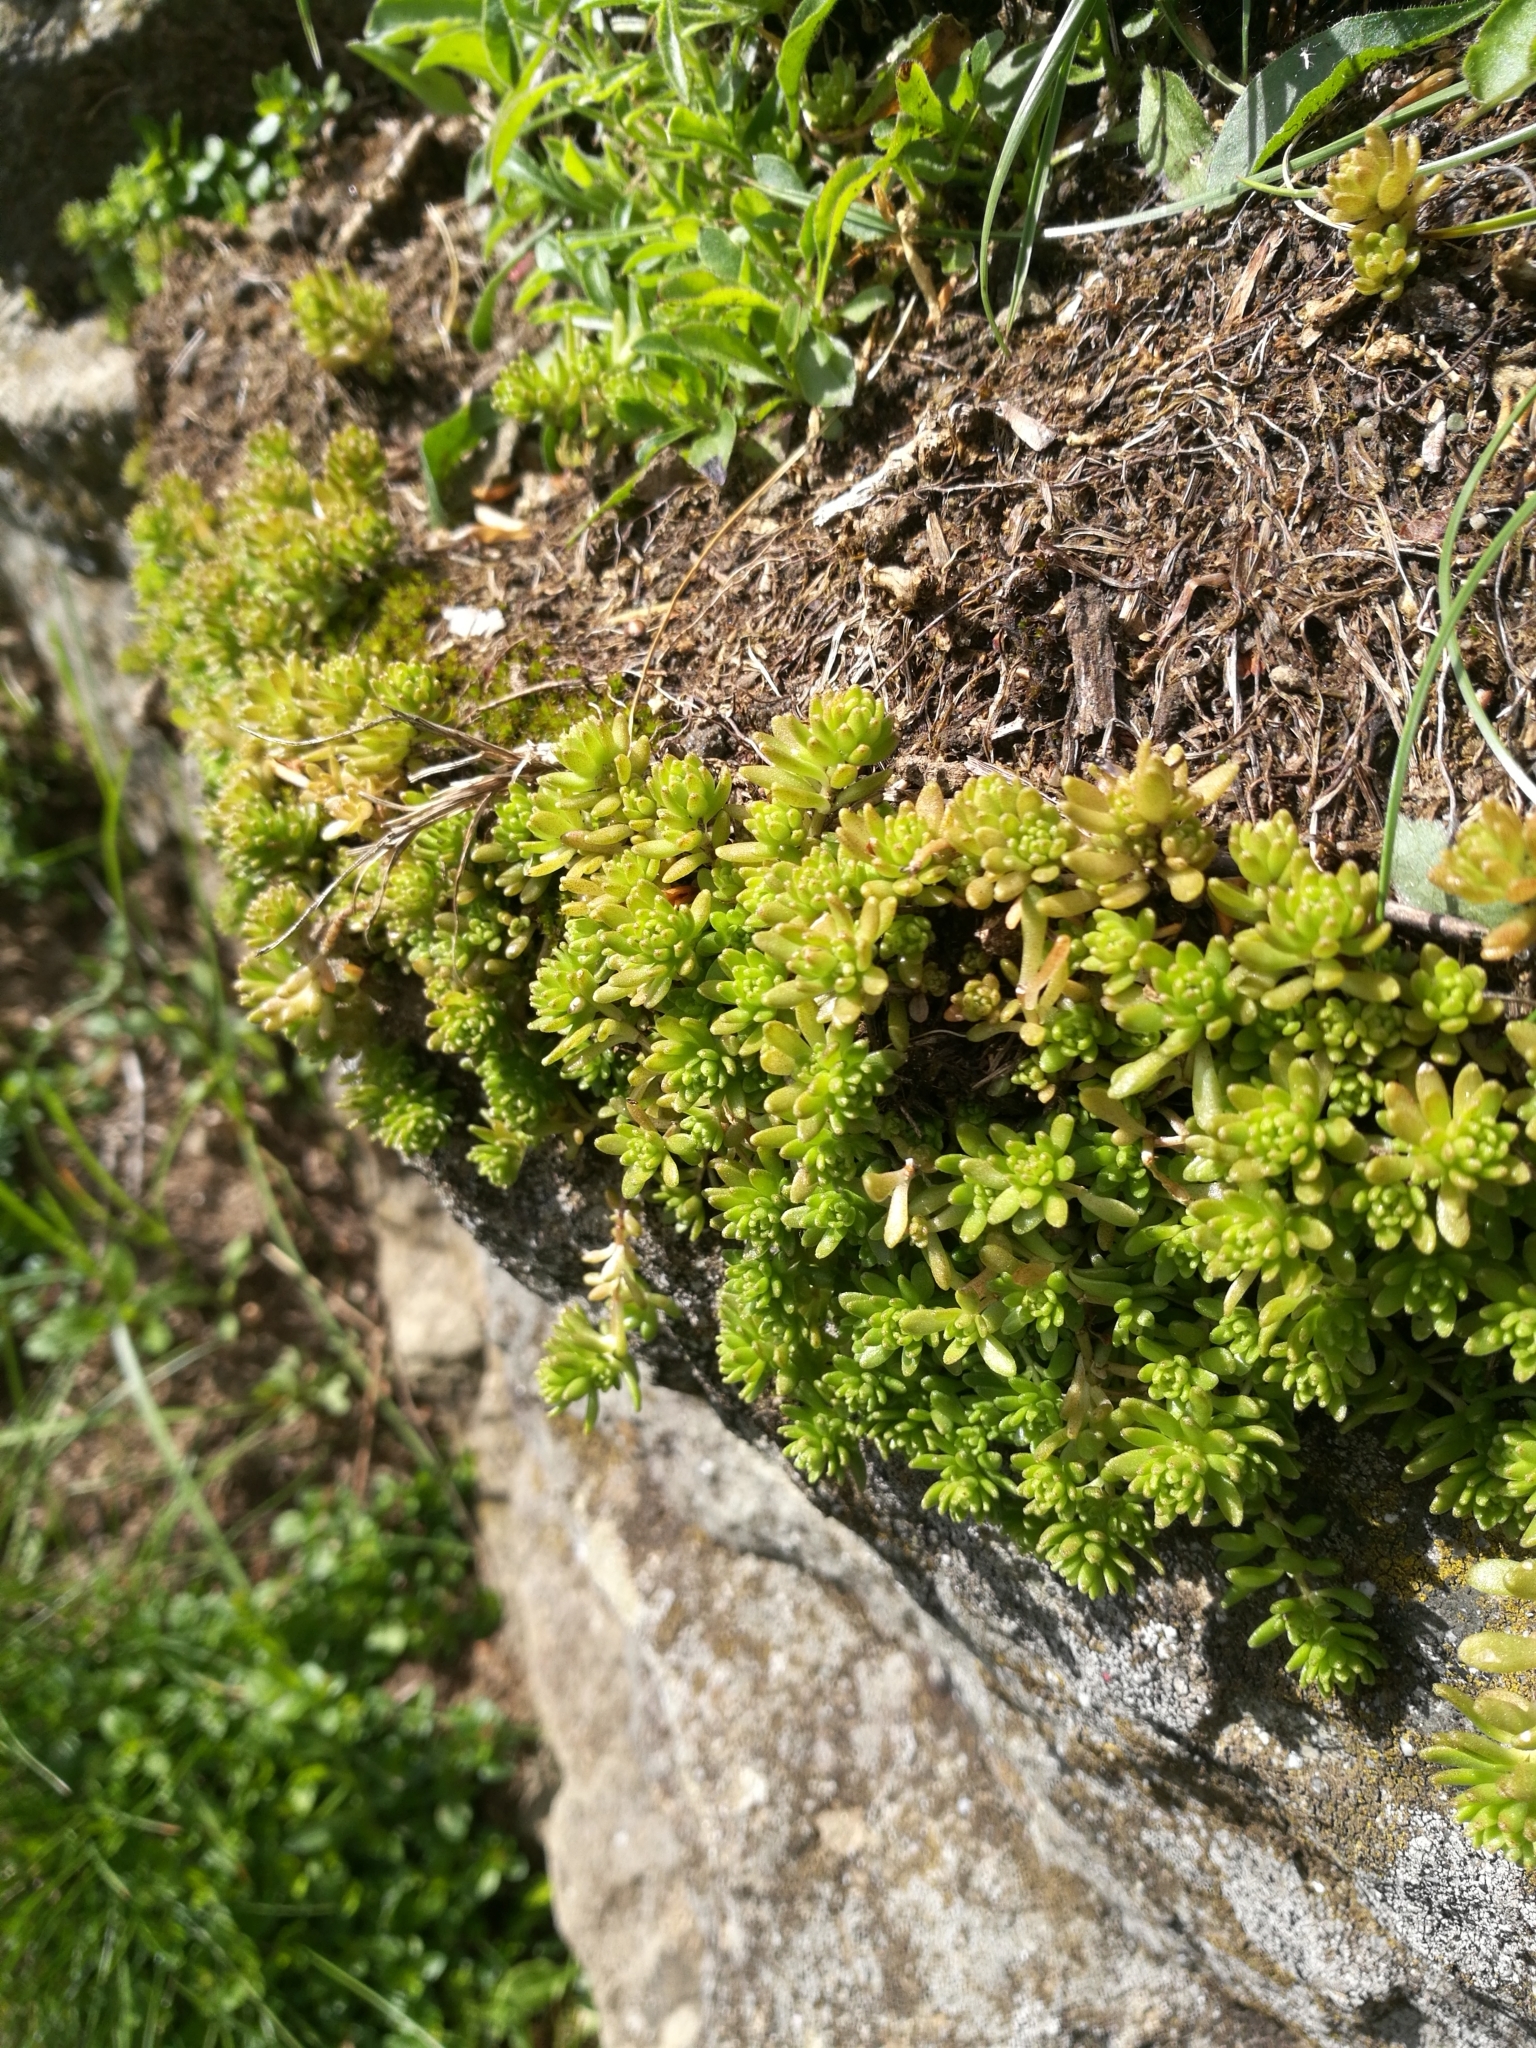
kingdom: Plantae
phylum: Tracheophyta
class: Magnoliopsida
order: Saxifragales
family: Crassulaceae
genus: Sedum
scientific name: Sedum monregalense
